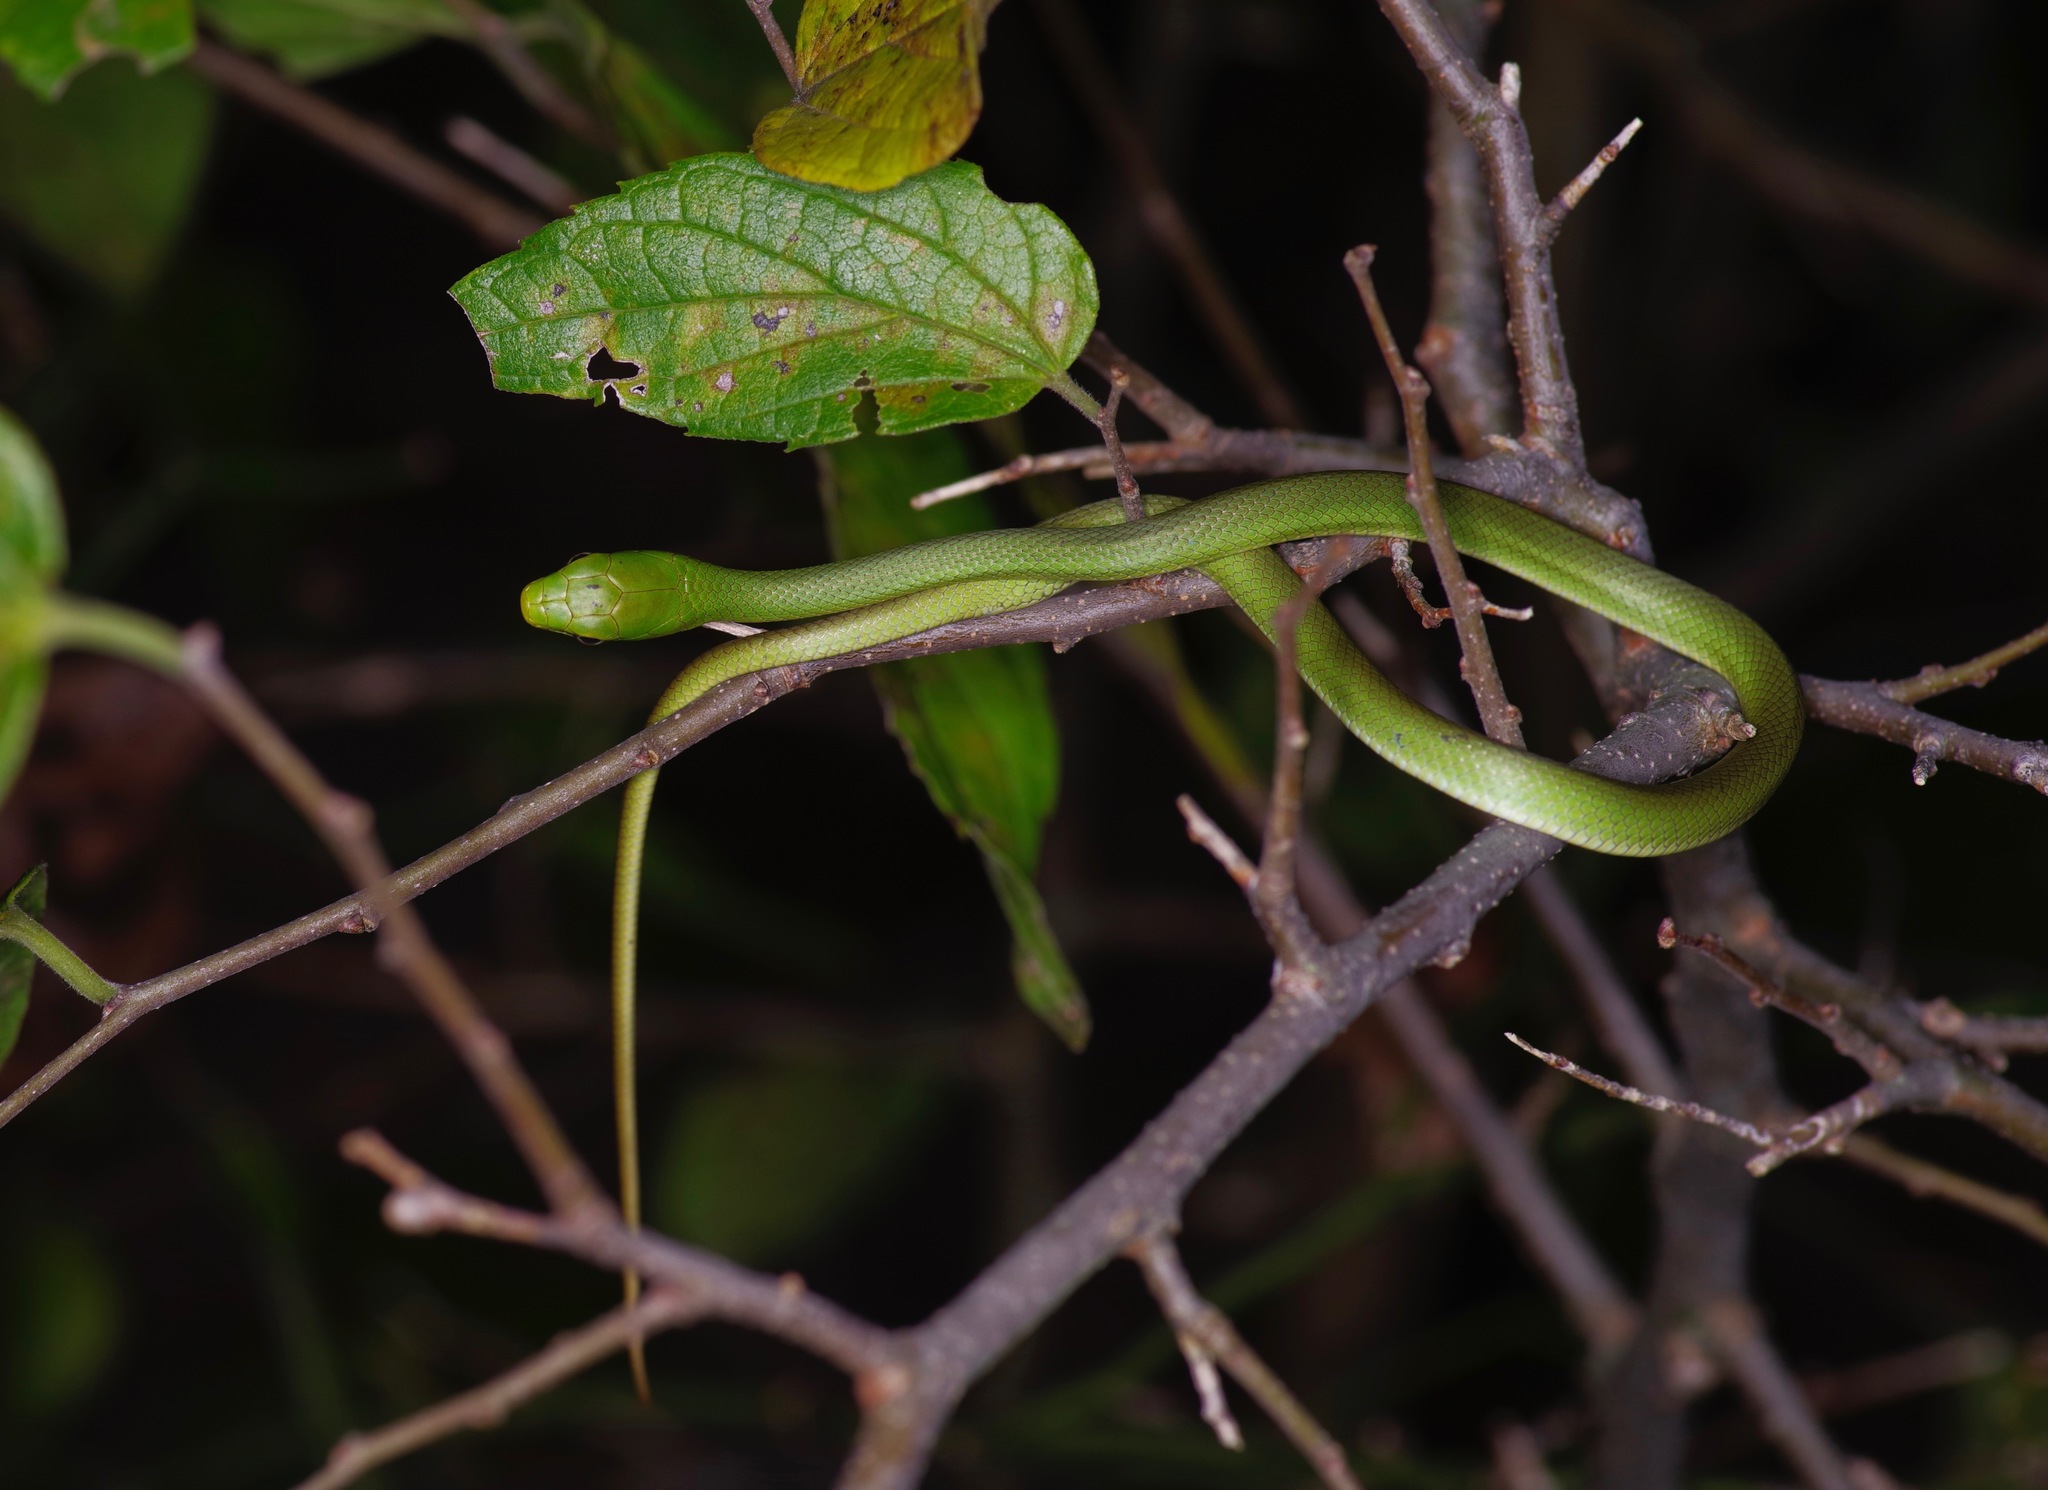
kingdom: Animalia
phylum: Chordata
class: Squamata
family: Colubridae
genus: Opheodrys
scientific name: Opheodrys aestivus
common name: Rough greensnake
